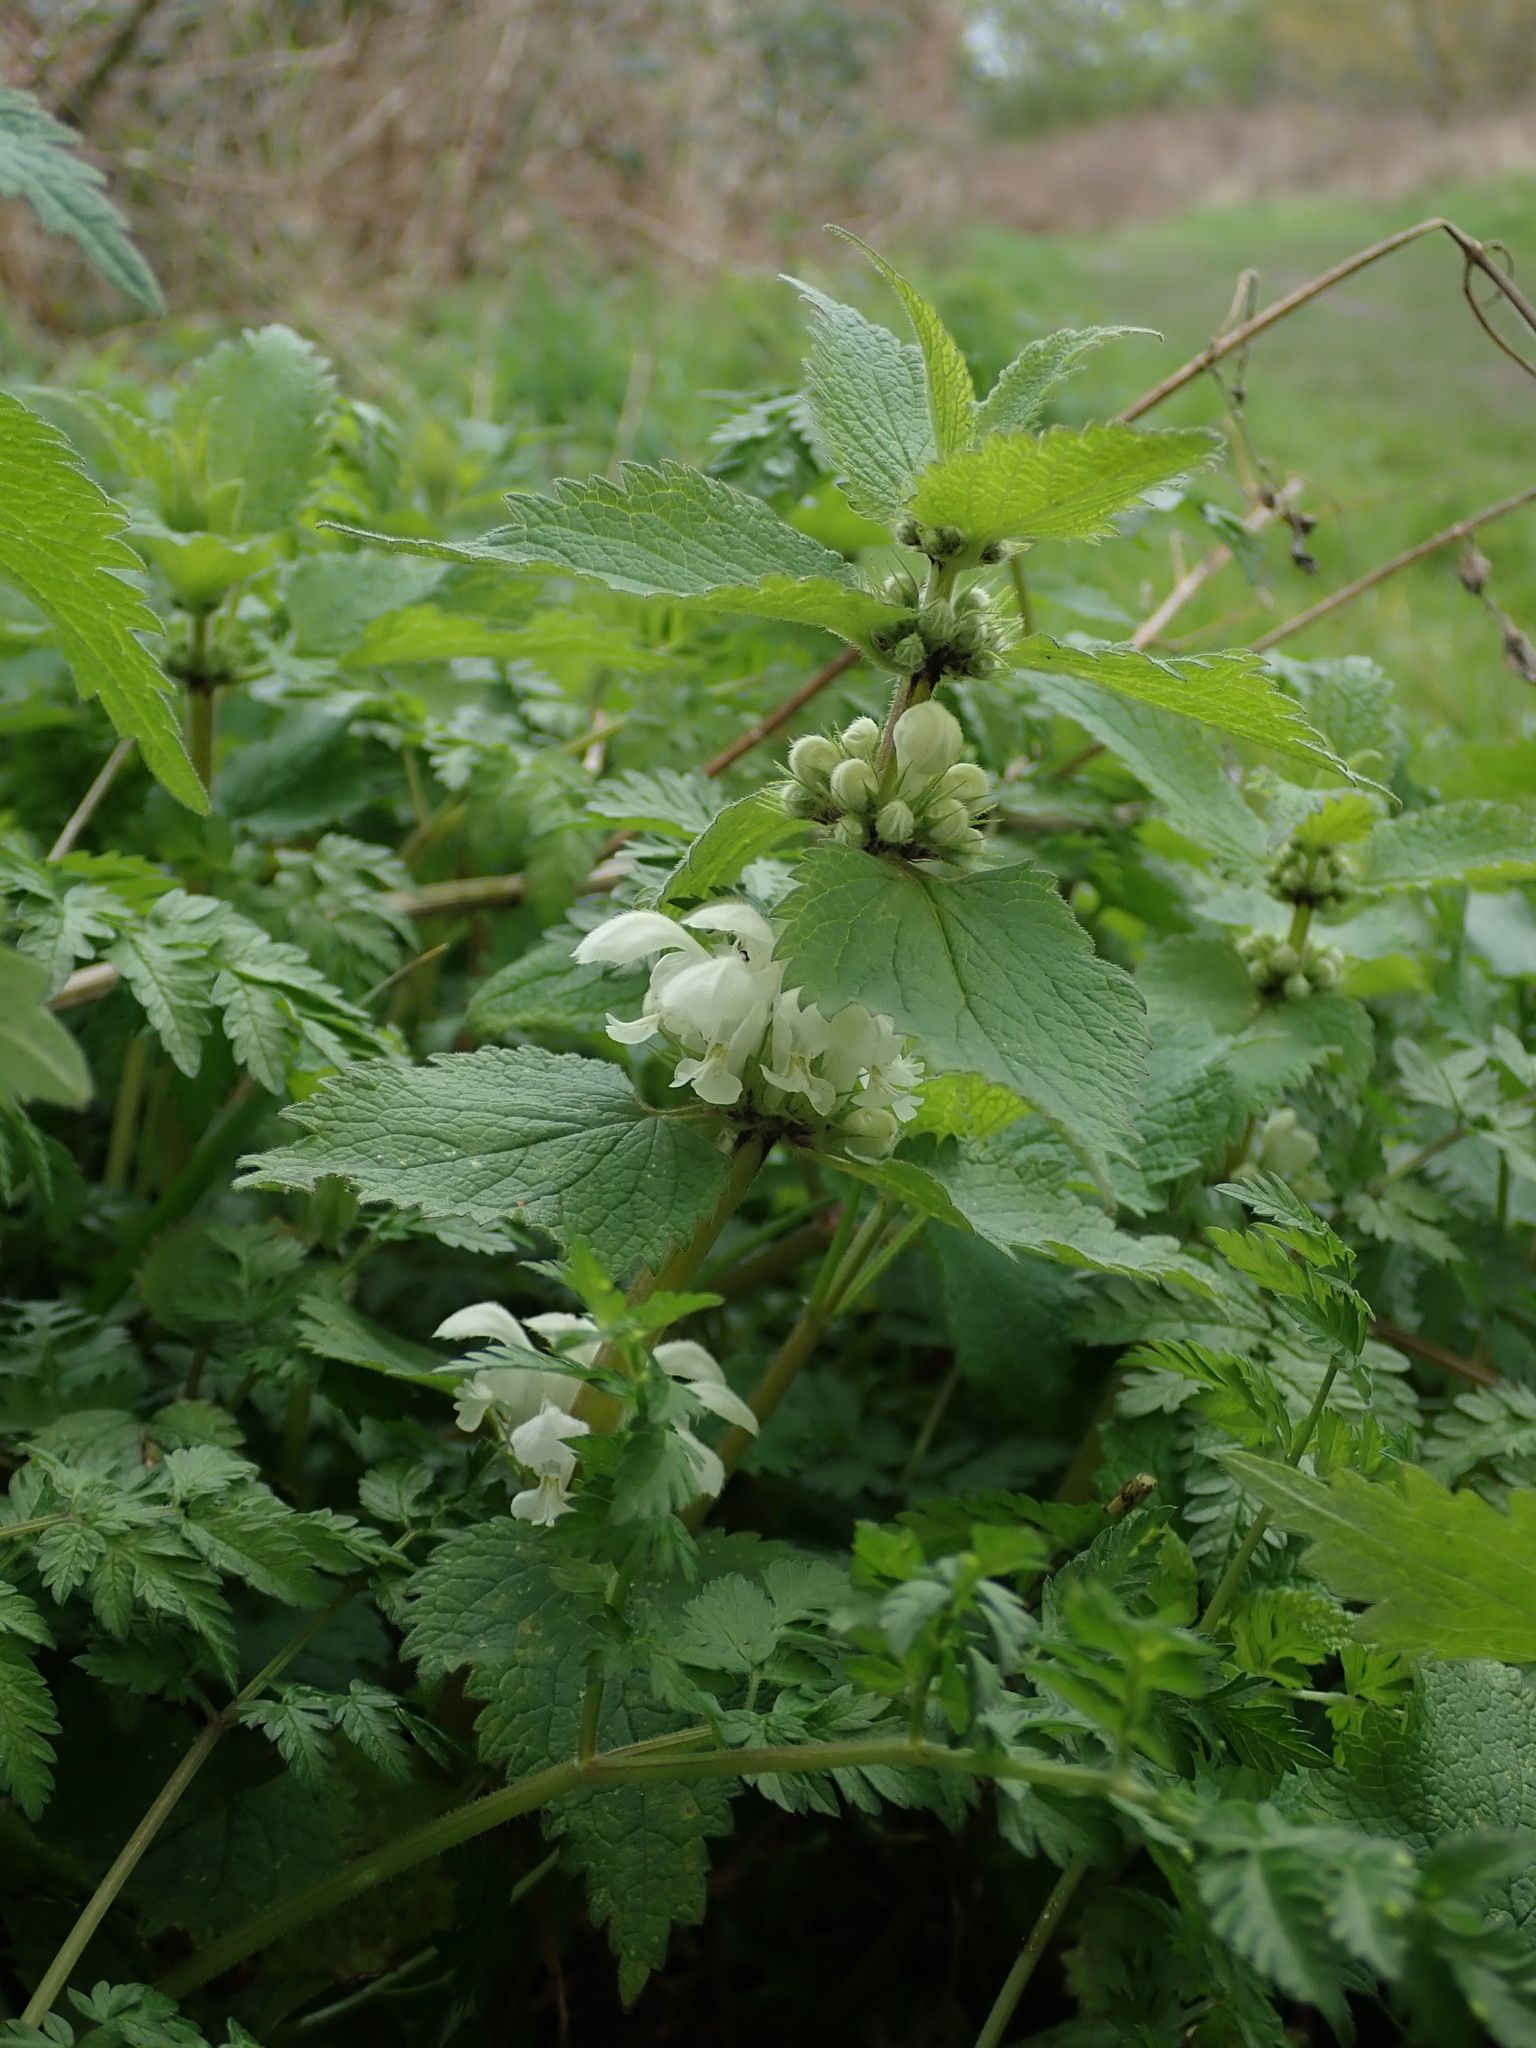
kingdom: Plantae
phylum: Tracheophyta
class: Magnoliopsida
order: Lamiales
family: Lamiaceae
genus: Lamium
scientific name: Lamium album
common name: White dead-nettle
